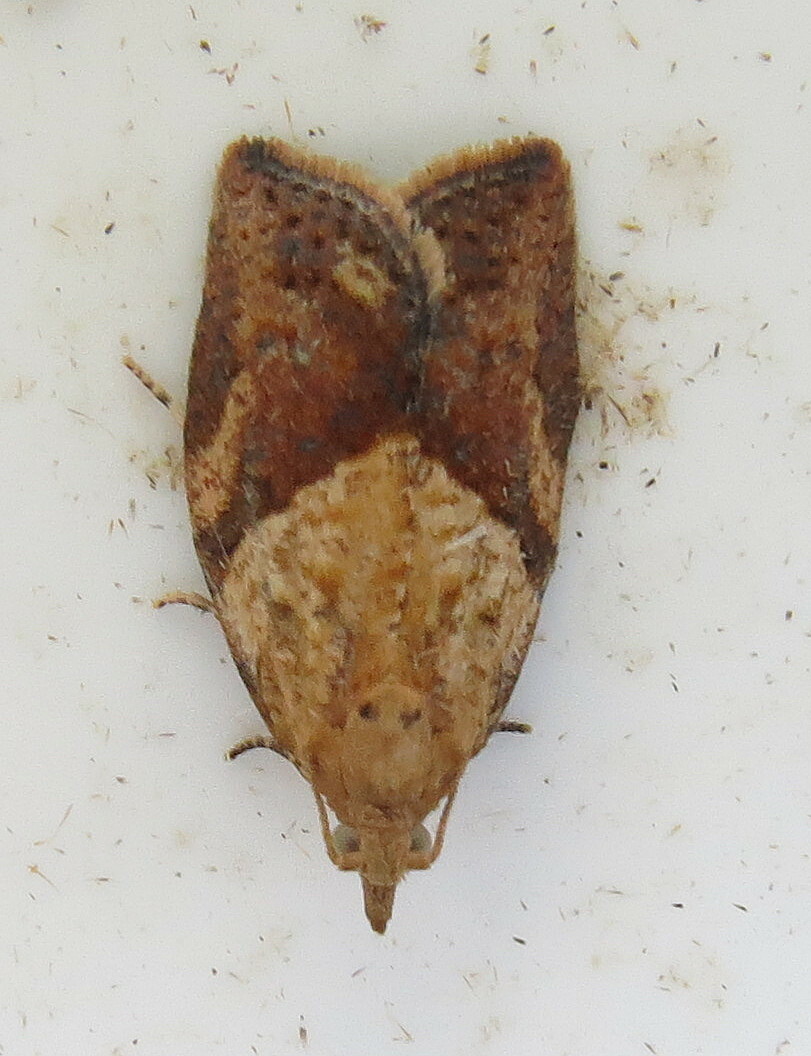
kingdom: Animalia
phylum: Arthropoda
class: Insecta
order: Lepidoptera
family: Tortricidae
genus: Epiphyas
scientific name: Epiphyas postvittana
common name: Light brown apple moth
